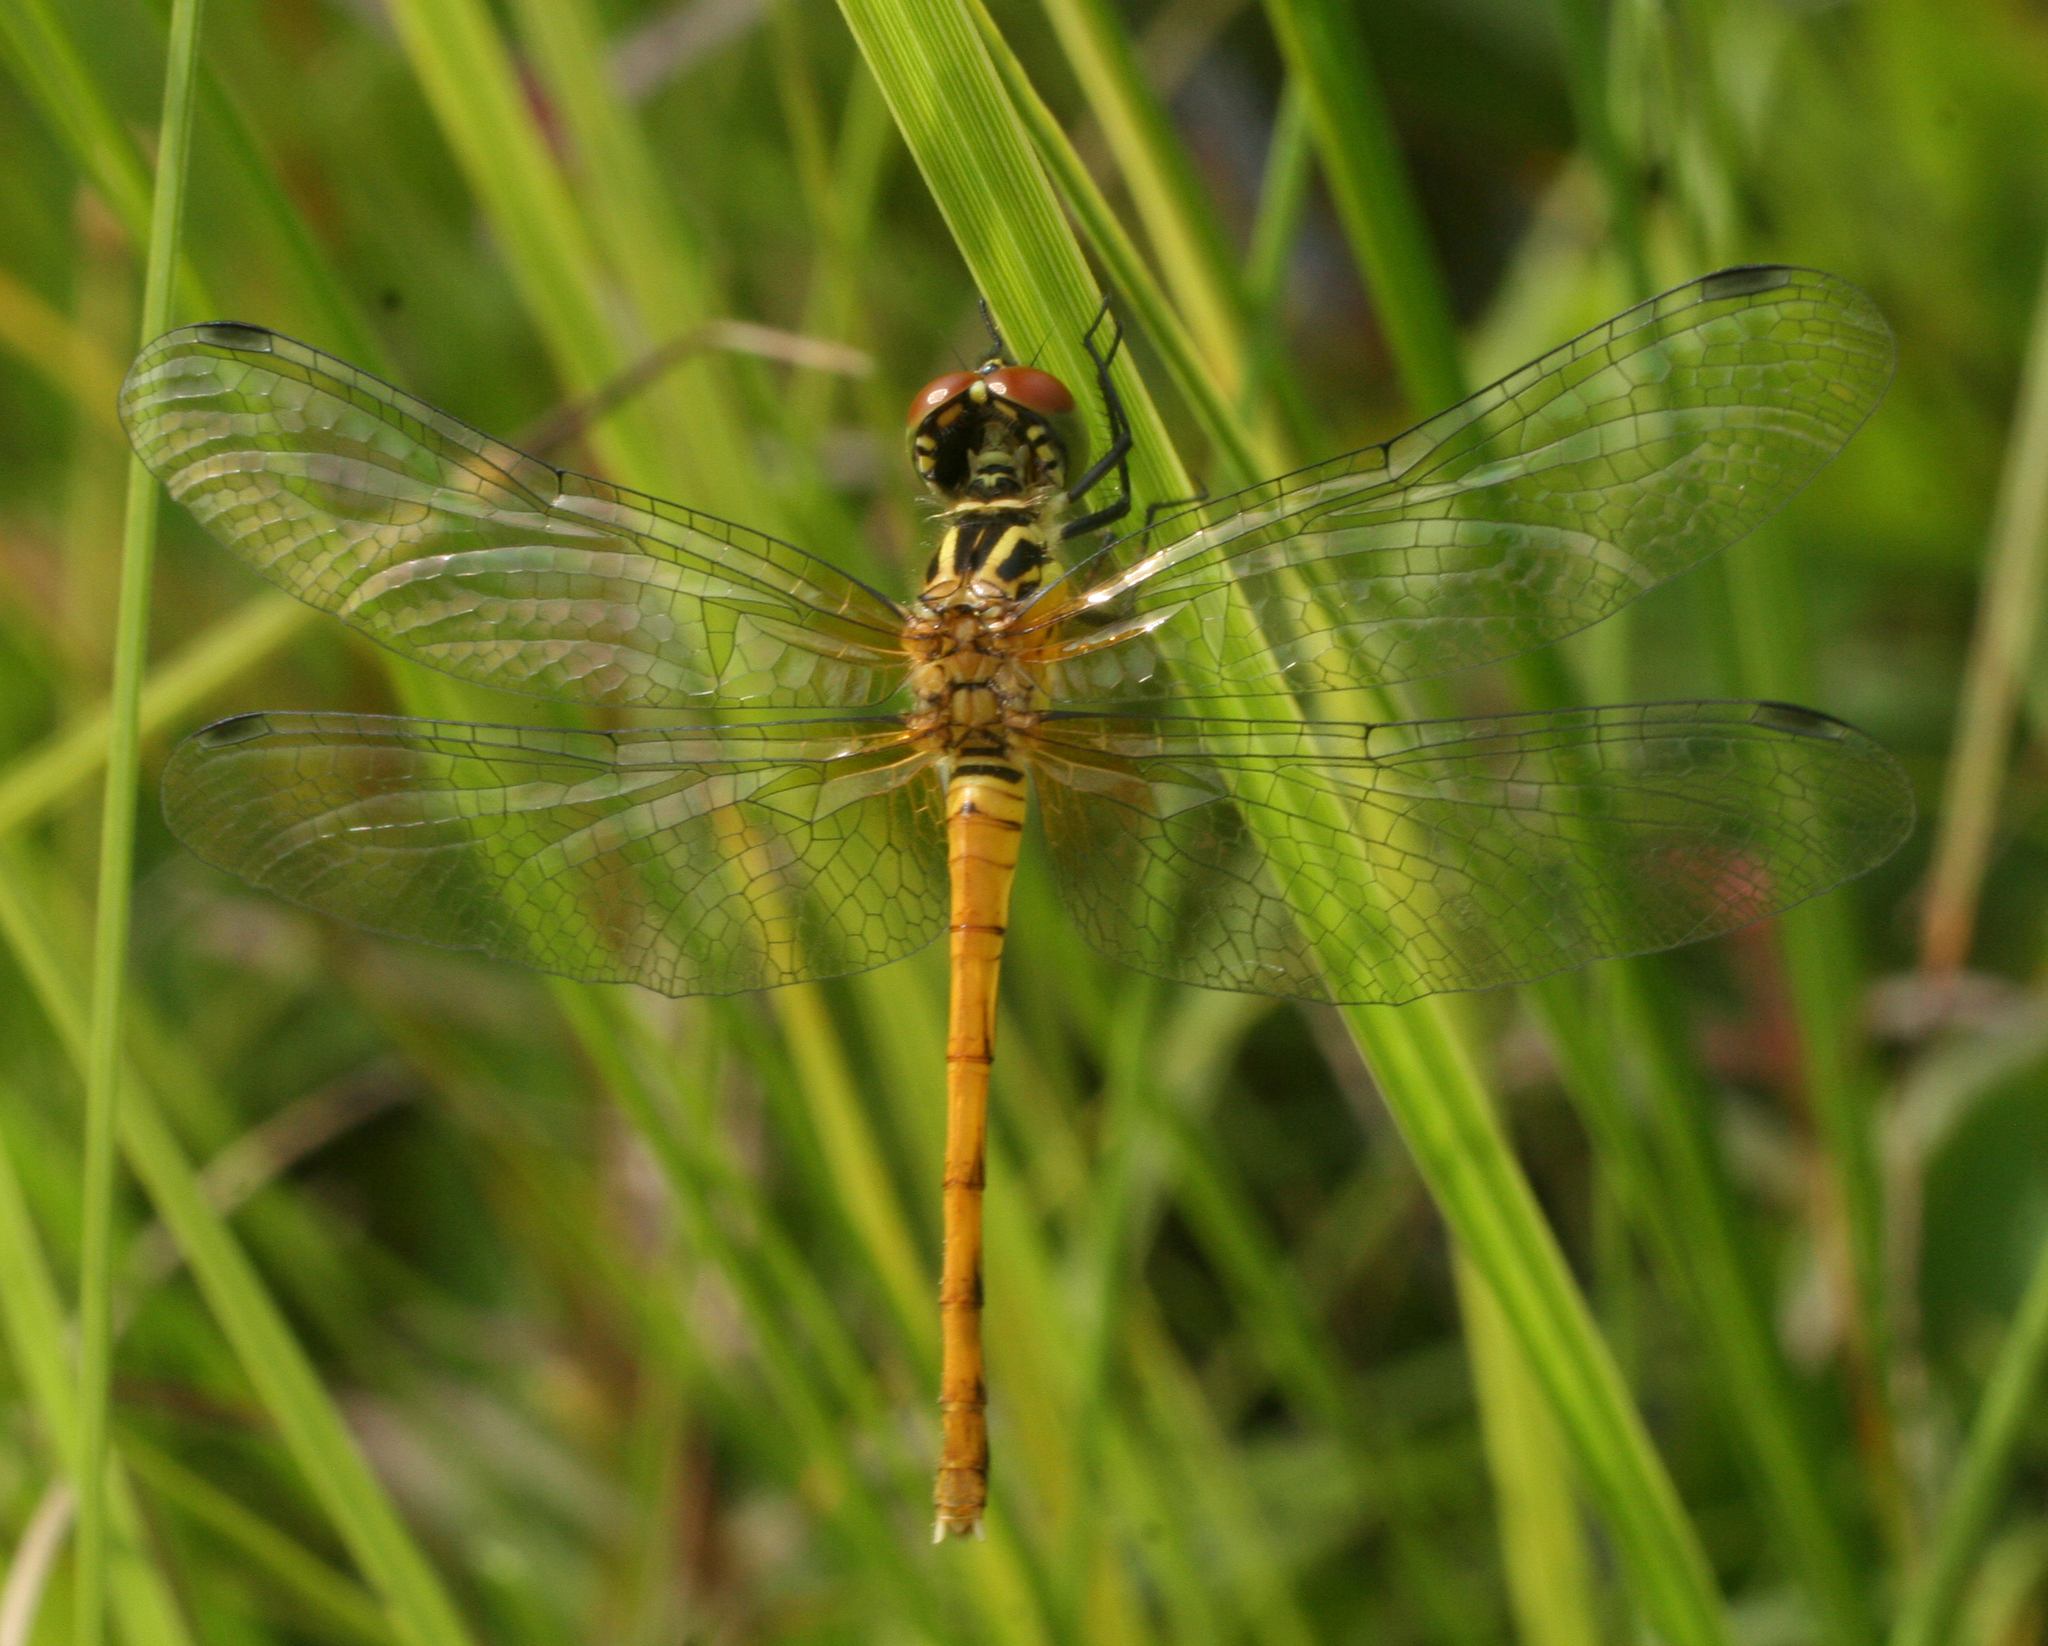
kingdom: Animalia
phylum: Arthropoda
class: Insecta
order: Odonata
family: Libellulidae
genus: Sympetrum
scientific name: Sympetrum kunckeli
